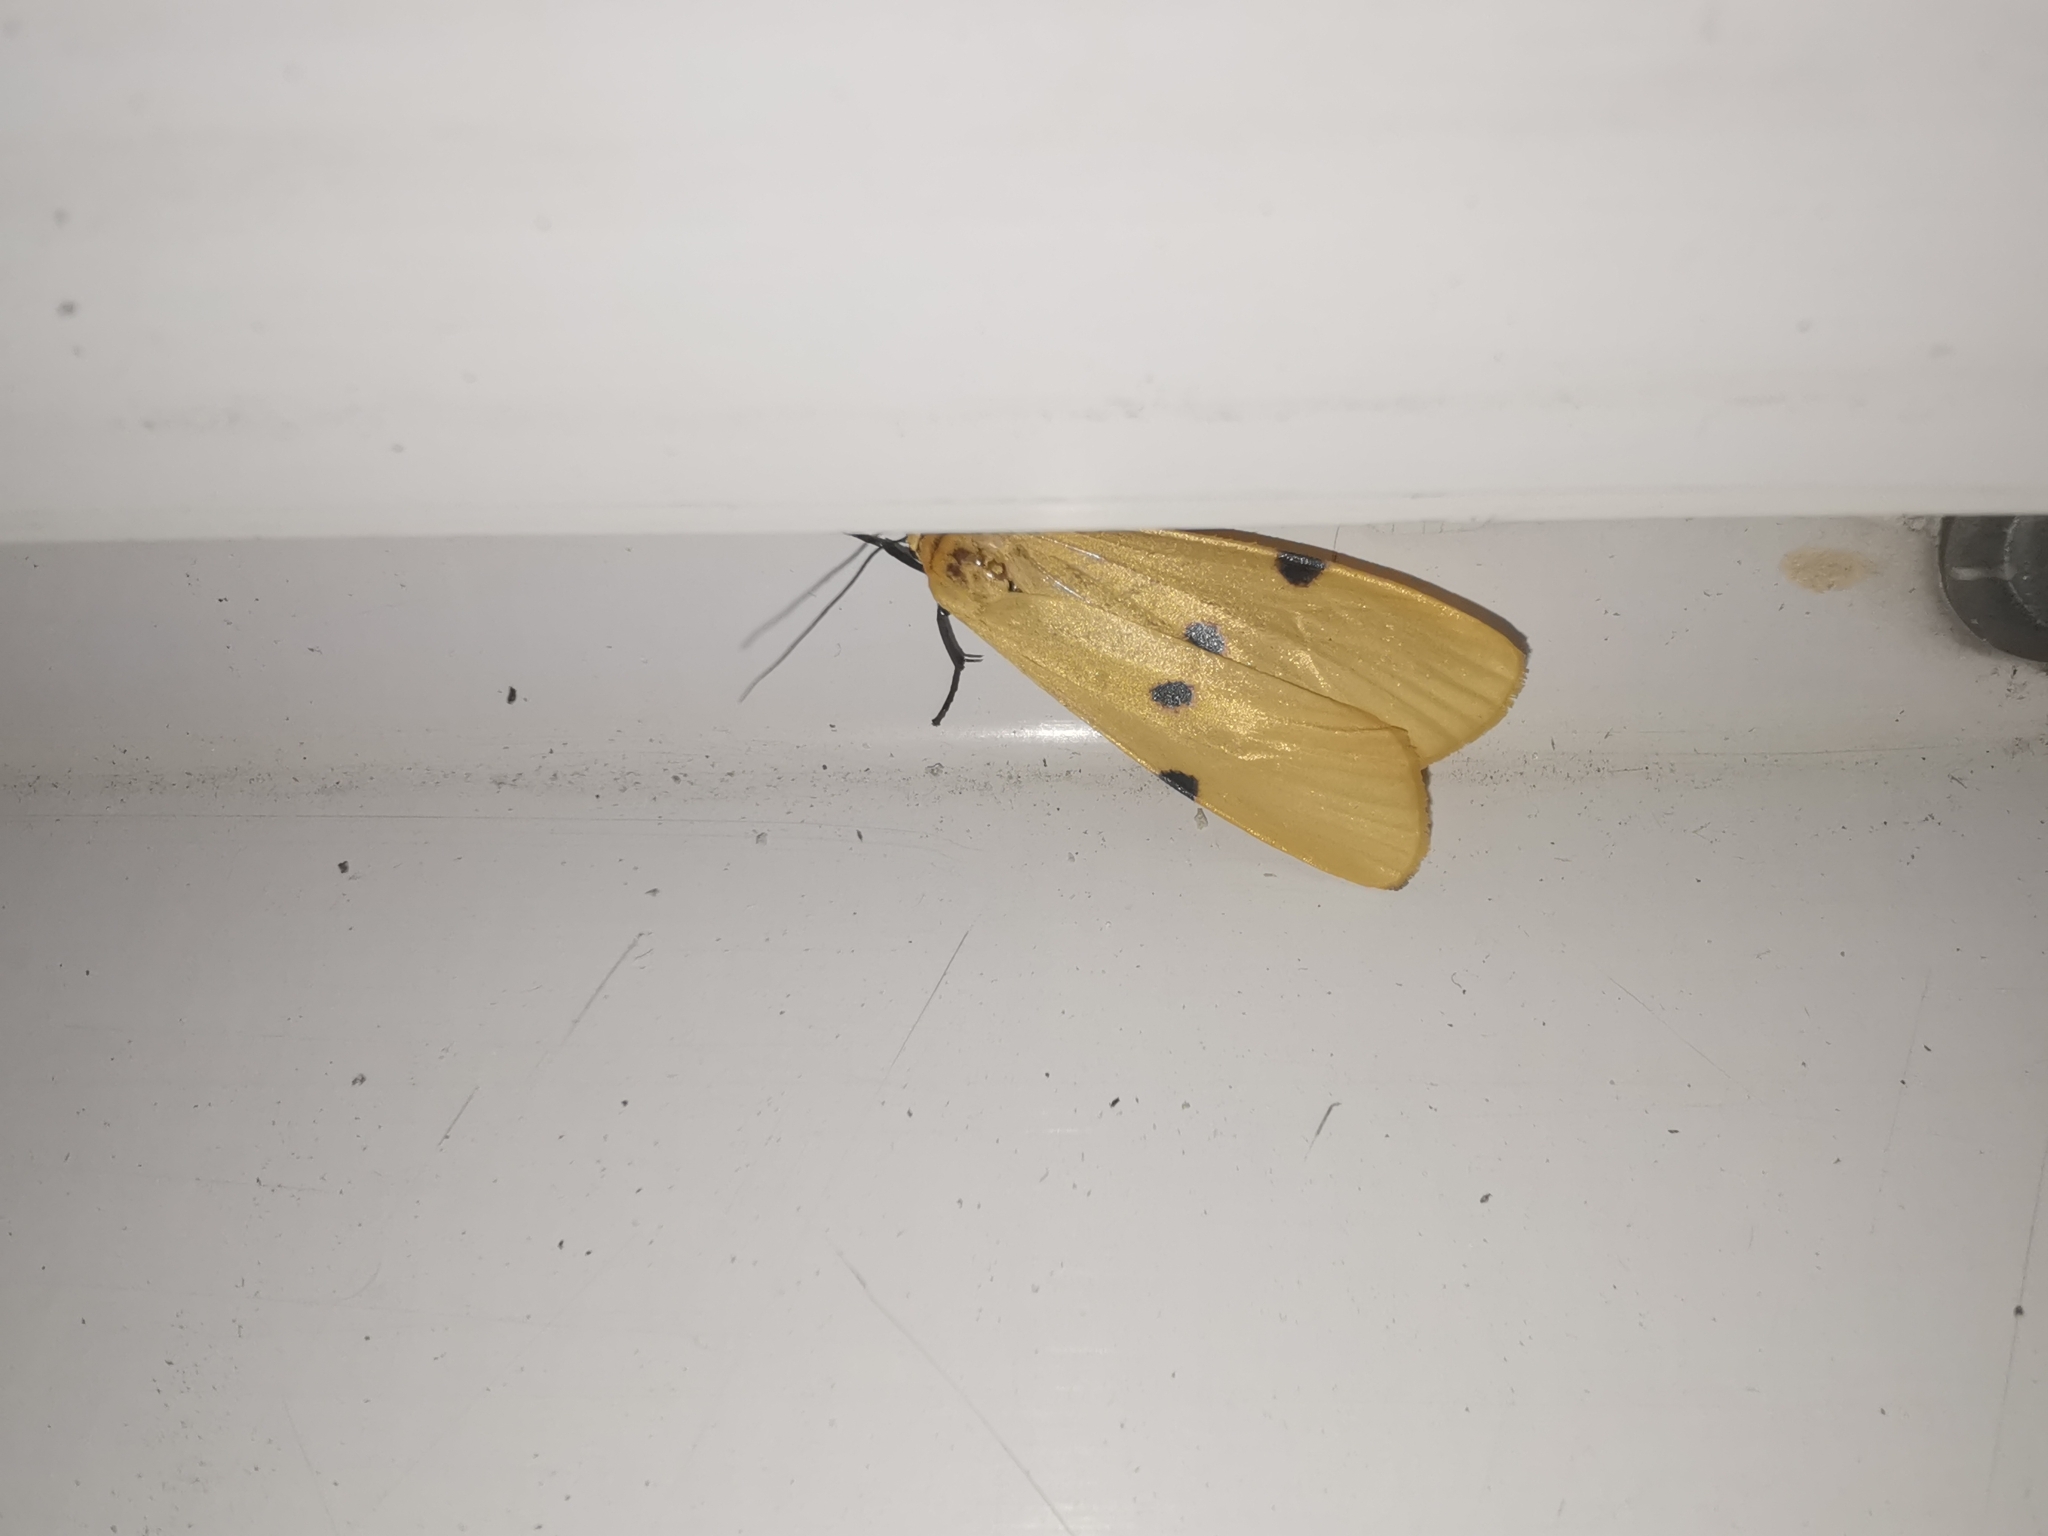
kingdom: Animalia
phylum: Arthropoda
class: Insecta
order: Lepidoptera
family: Erebidae
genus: Lithosia
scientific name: Lithosia quadra
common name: Four-spotted footman
